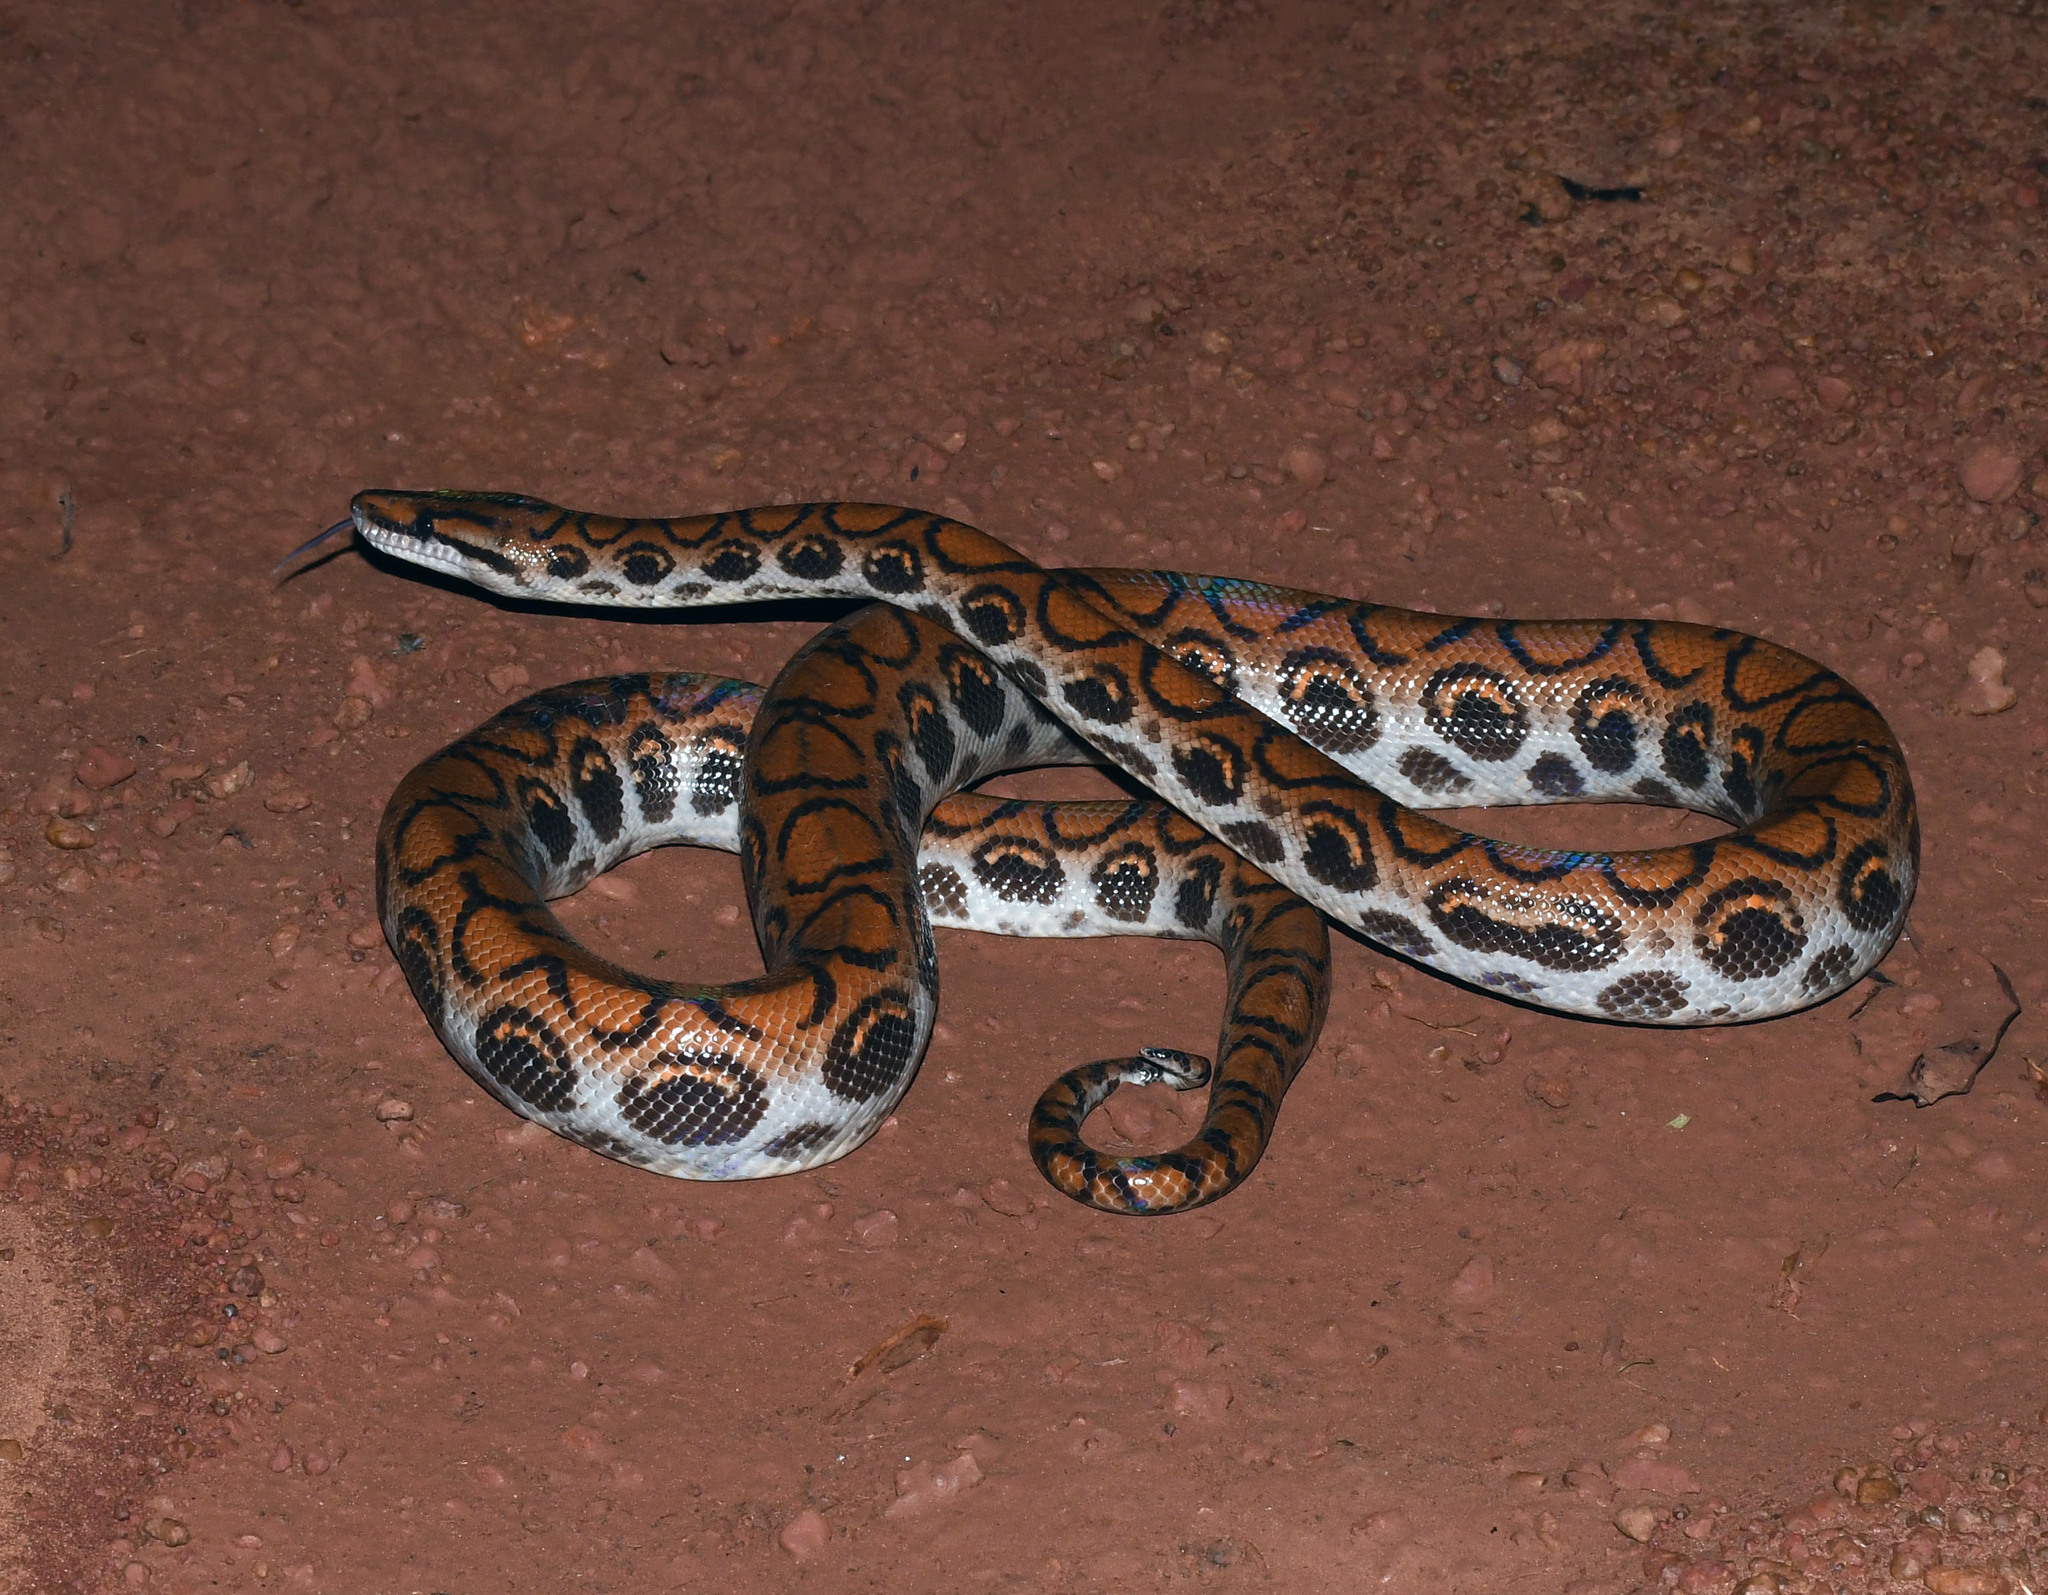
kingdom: Animalia
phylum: Chordata
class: Squamata
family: Boidae
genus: Epicrates
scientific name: Epicrates cenchria
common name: Rainbow boa
